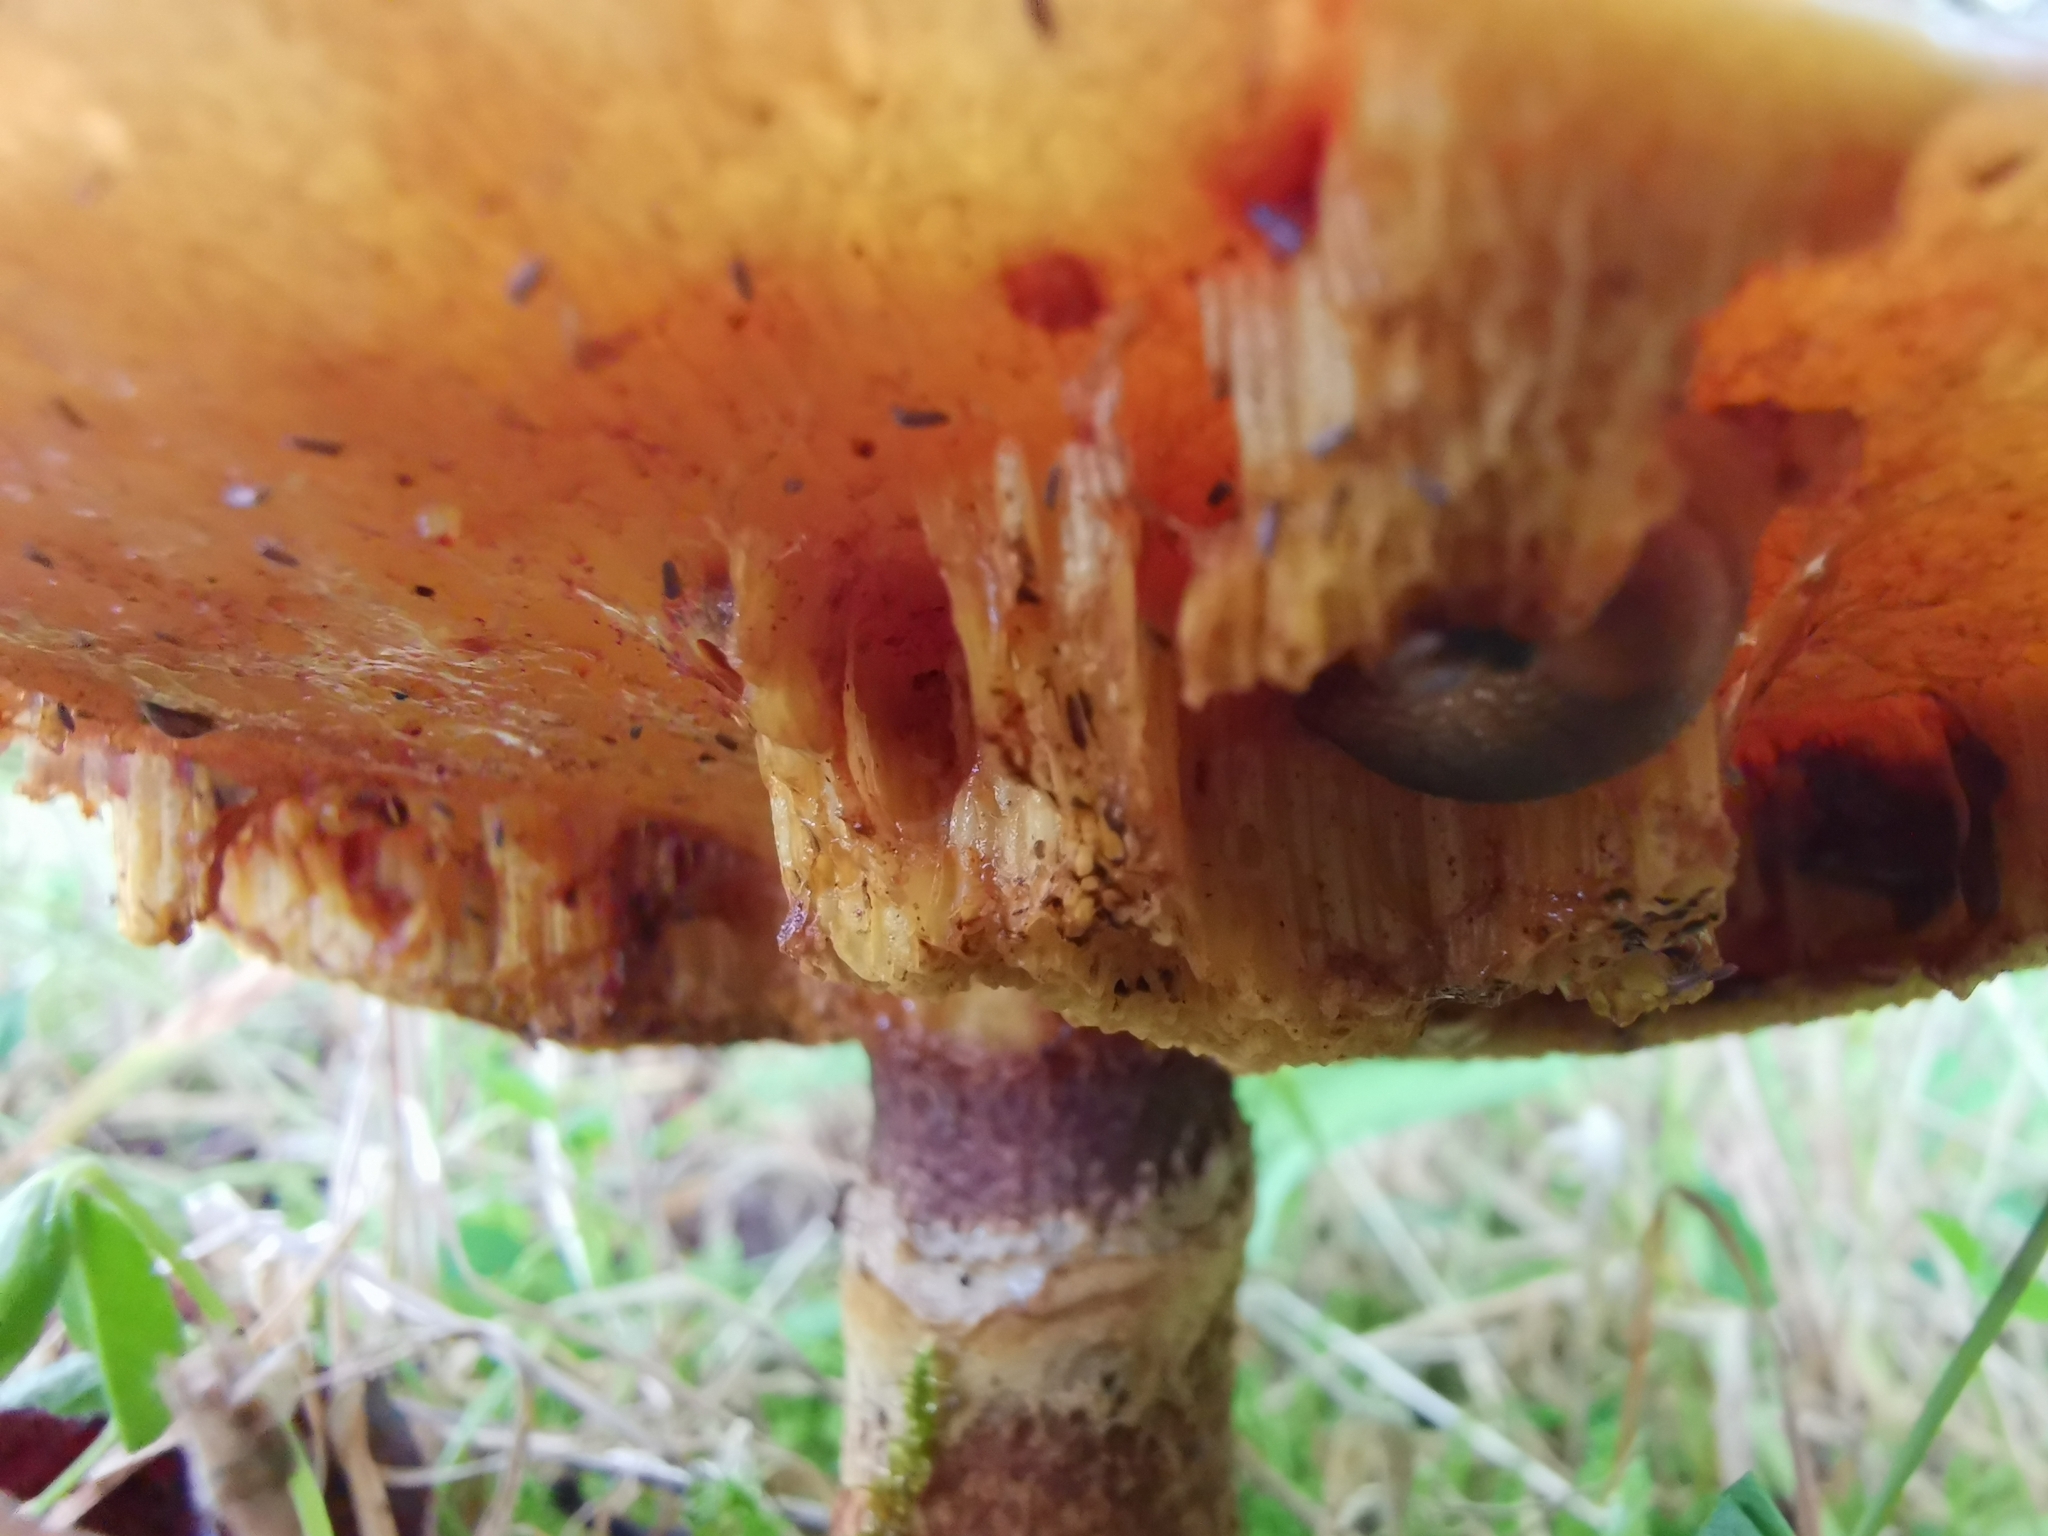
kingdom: Fungi
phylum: Basidiomycota
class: Agaricomycetes
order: Boletales
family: Suillaceae
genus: Suillus
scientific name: Suillus grevillei
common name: Larch bolete
